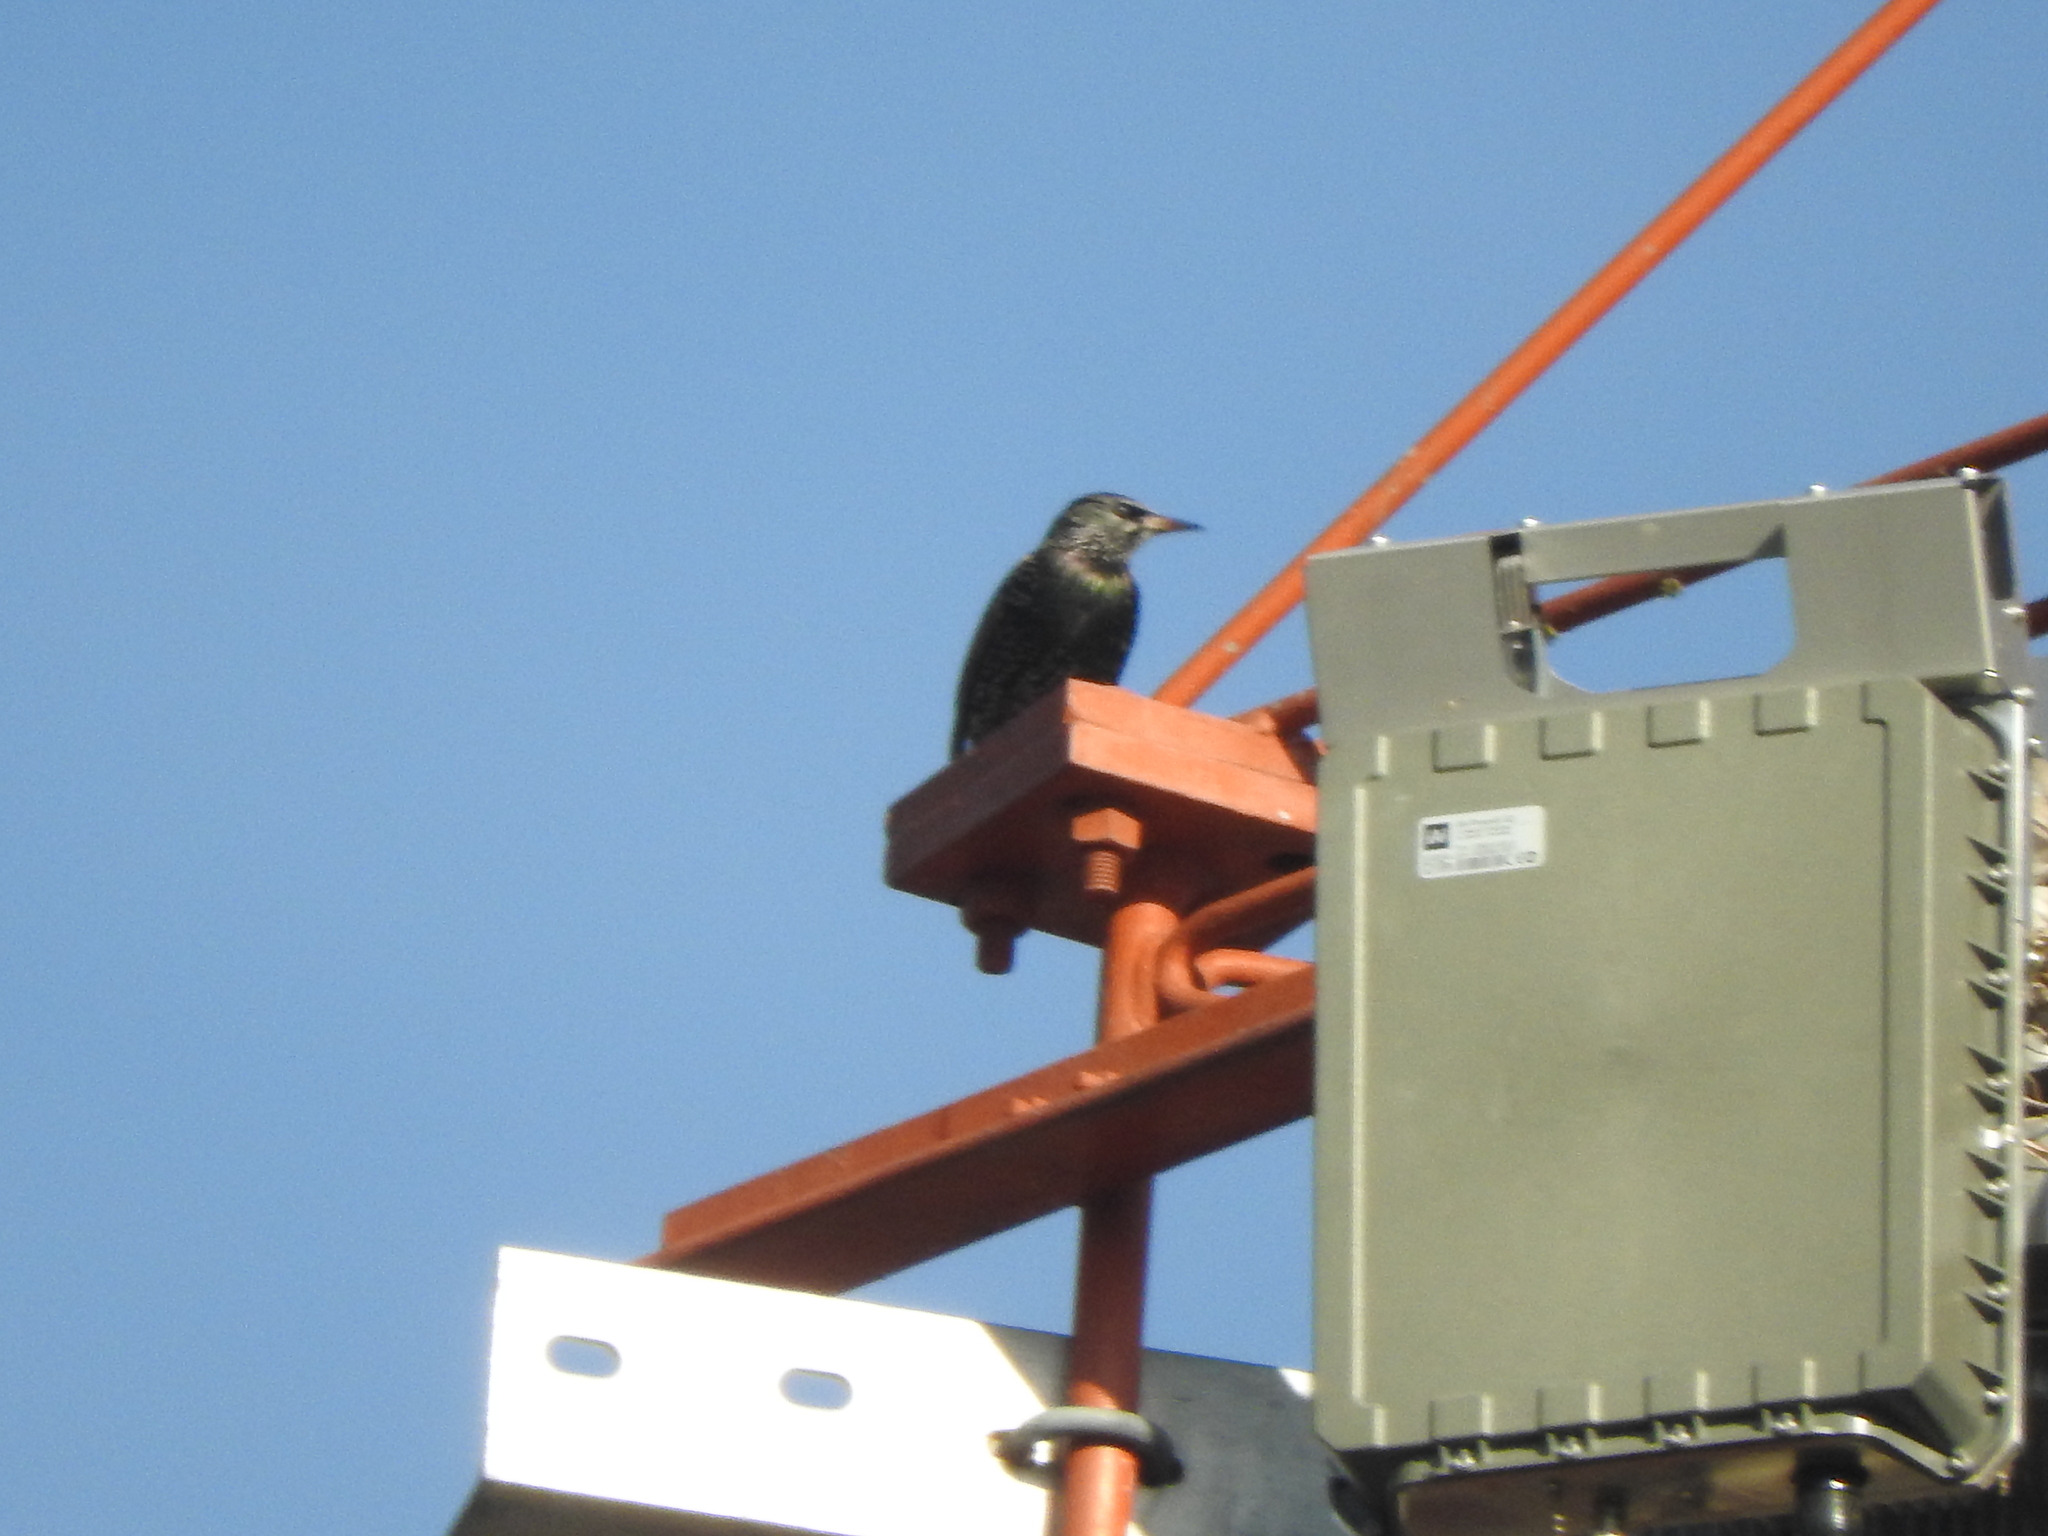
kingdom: Animalia
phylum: Chordata
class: Aves
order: Passeriformes
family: Sturnidae
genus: Sturnus
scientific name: Sturnus vulgaris
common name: Common starling
